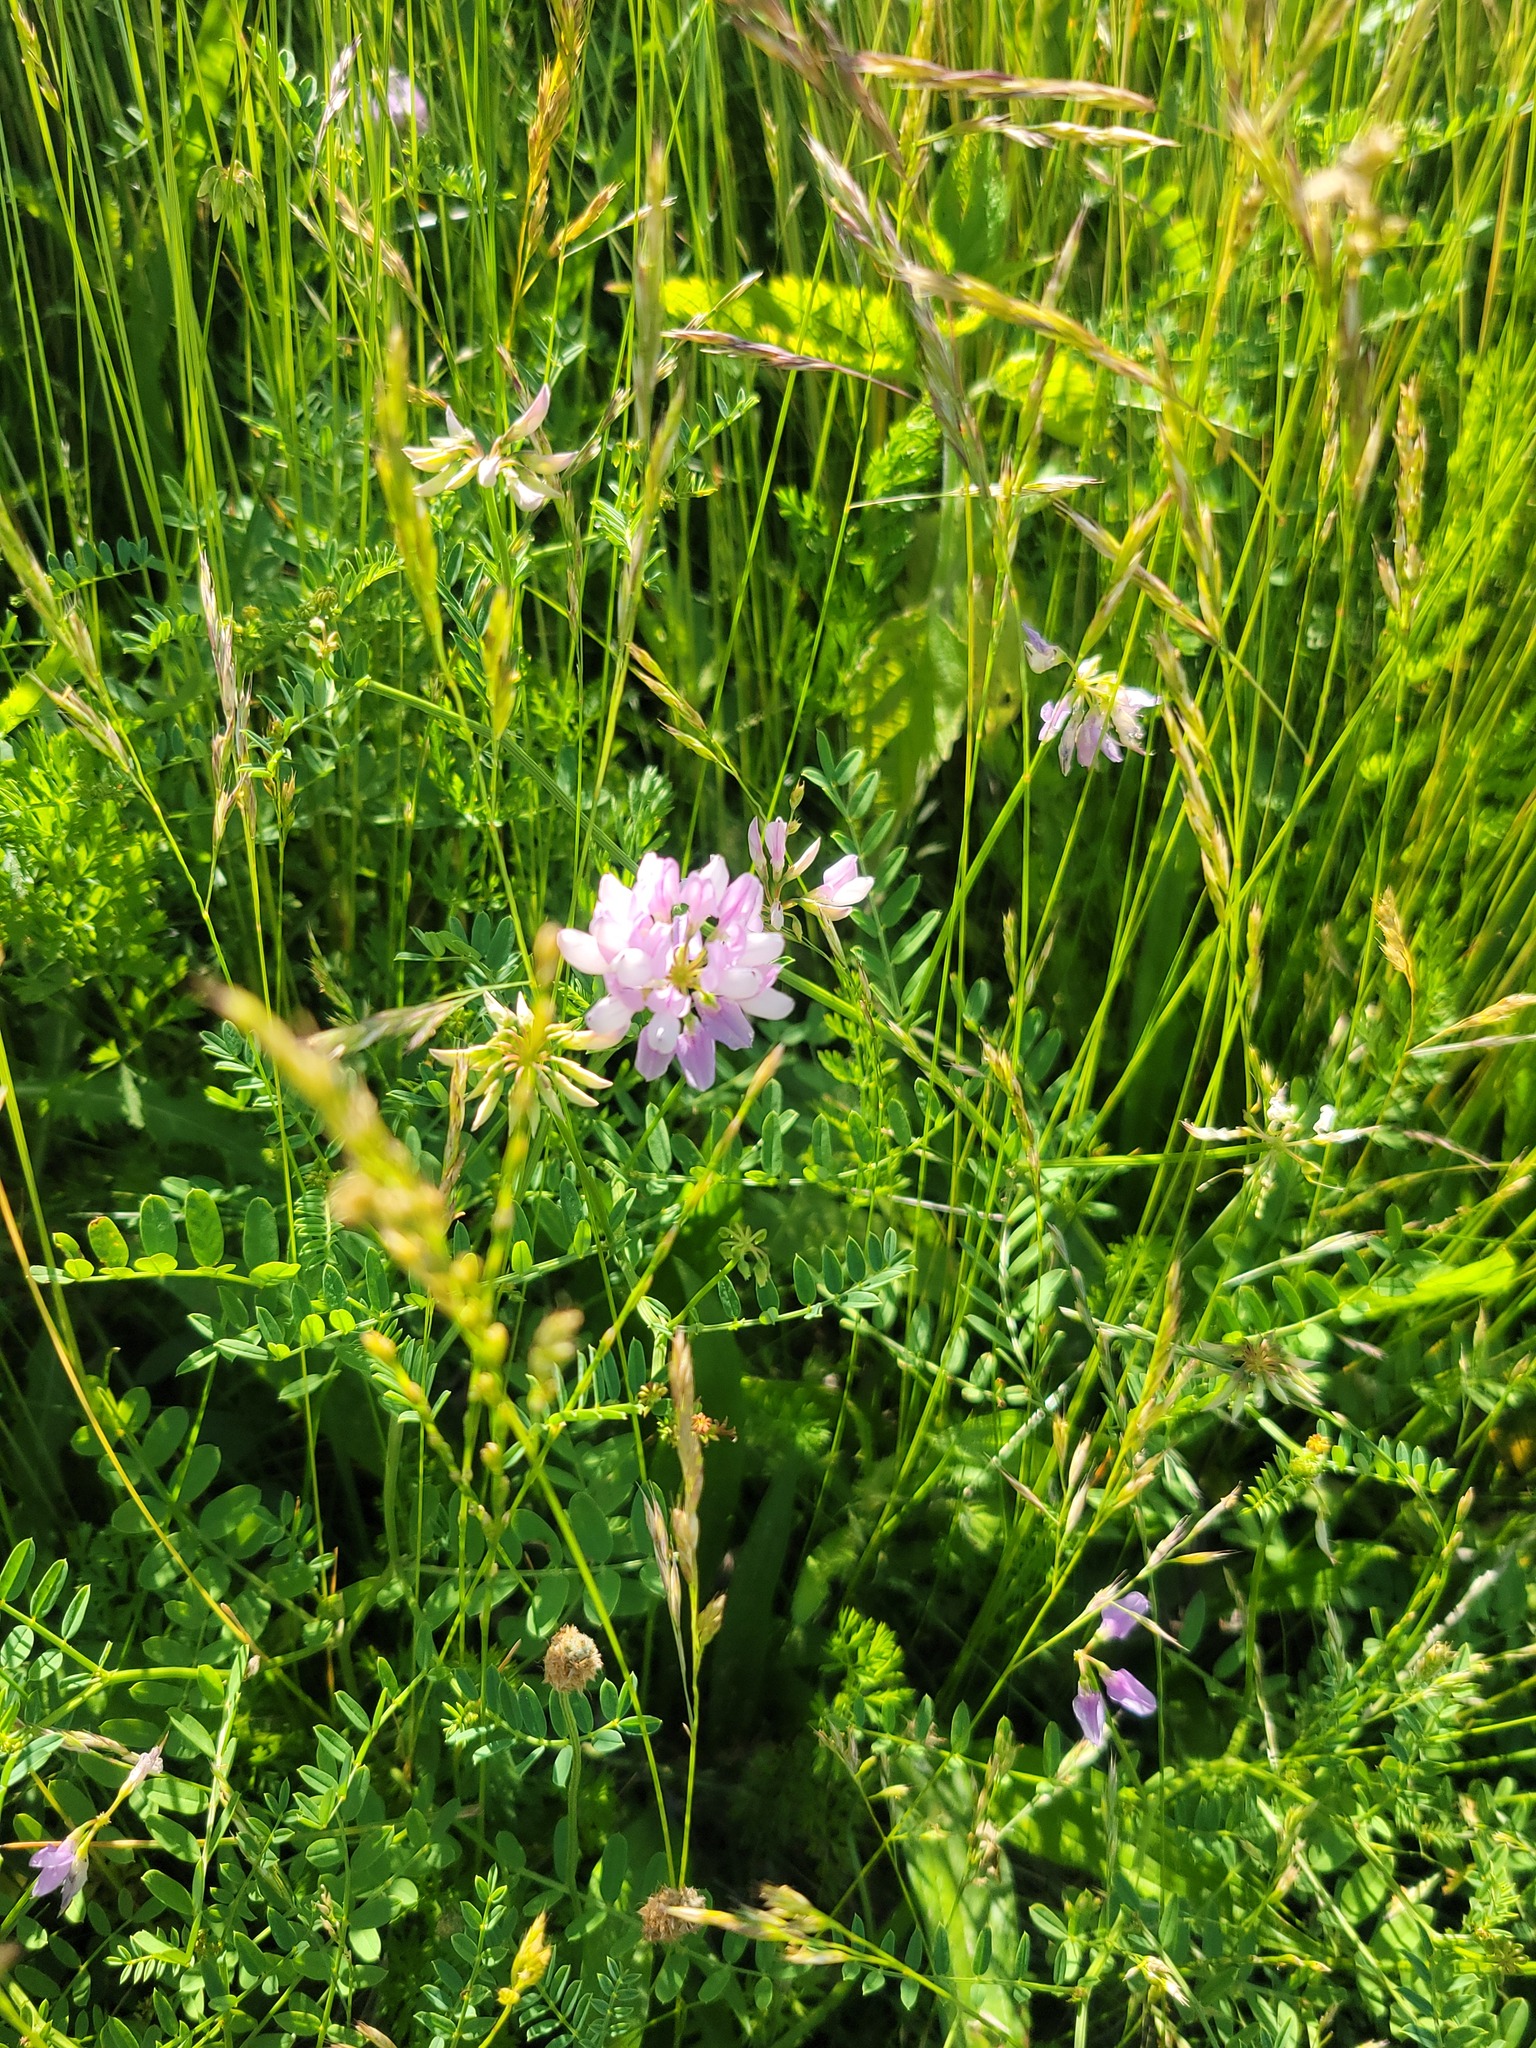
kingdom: Plantae
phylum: Tracheophyta
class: Magnoliopsida
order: Fabales
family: Fabaceae
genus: Coronilla
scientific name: Coronilla varia
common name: Crownvetch
